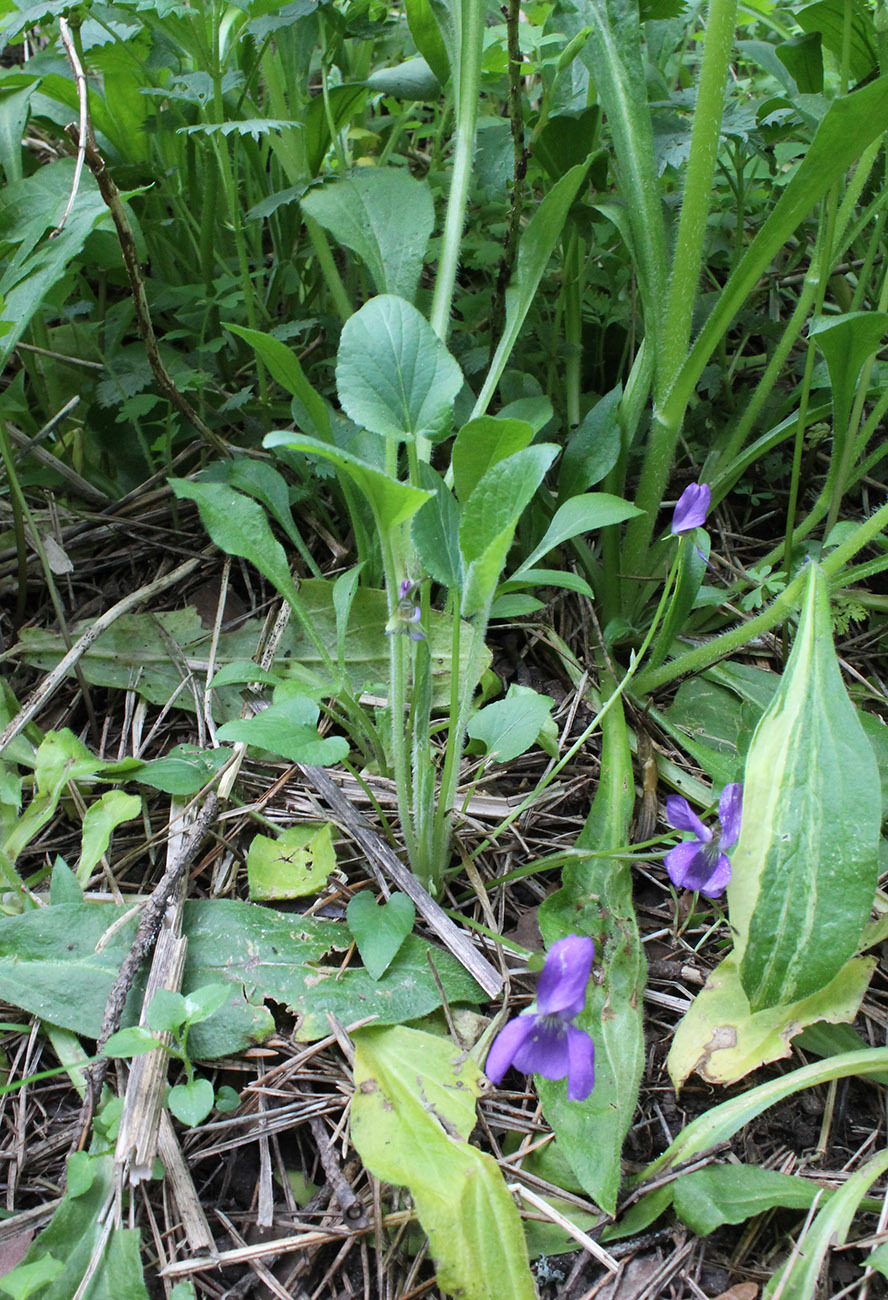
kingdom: Plantae
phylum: Tracheophyta
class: Magnoliopsida
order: Malpighiales
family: Violaceae
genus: Viola
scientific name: Viola hirta
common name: Hairy violet
